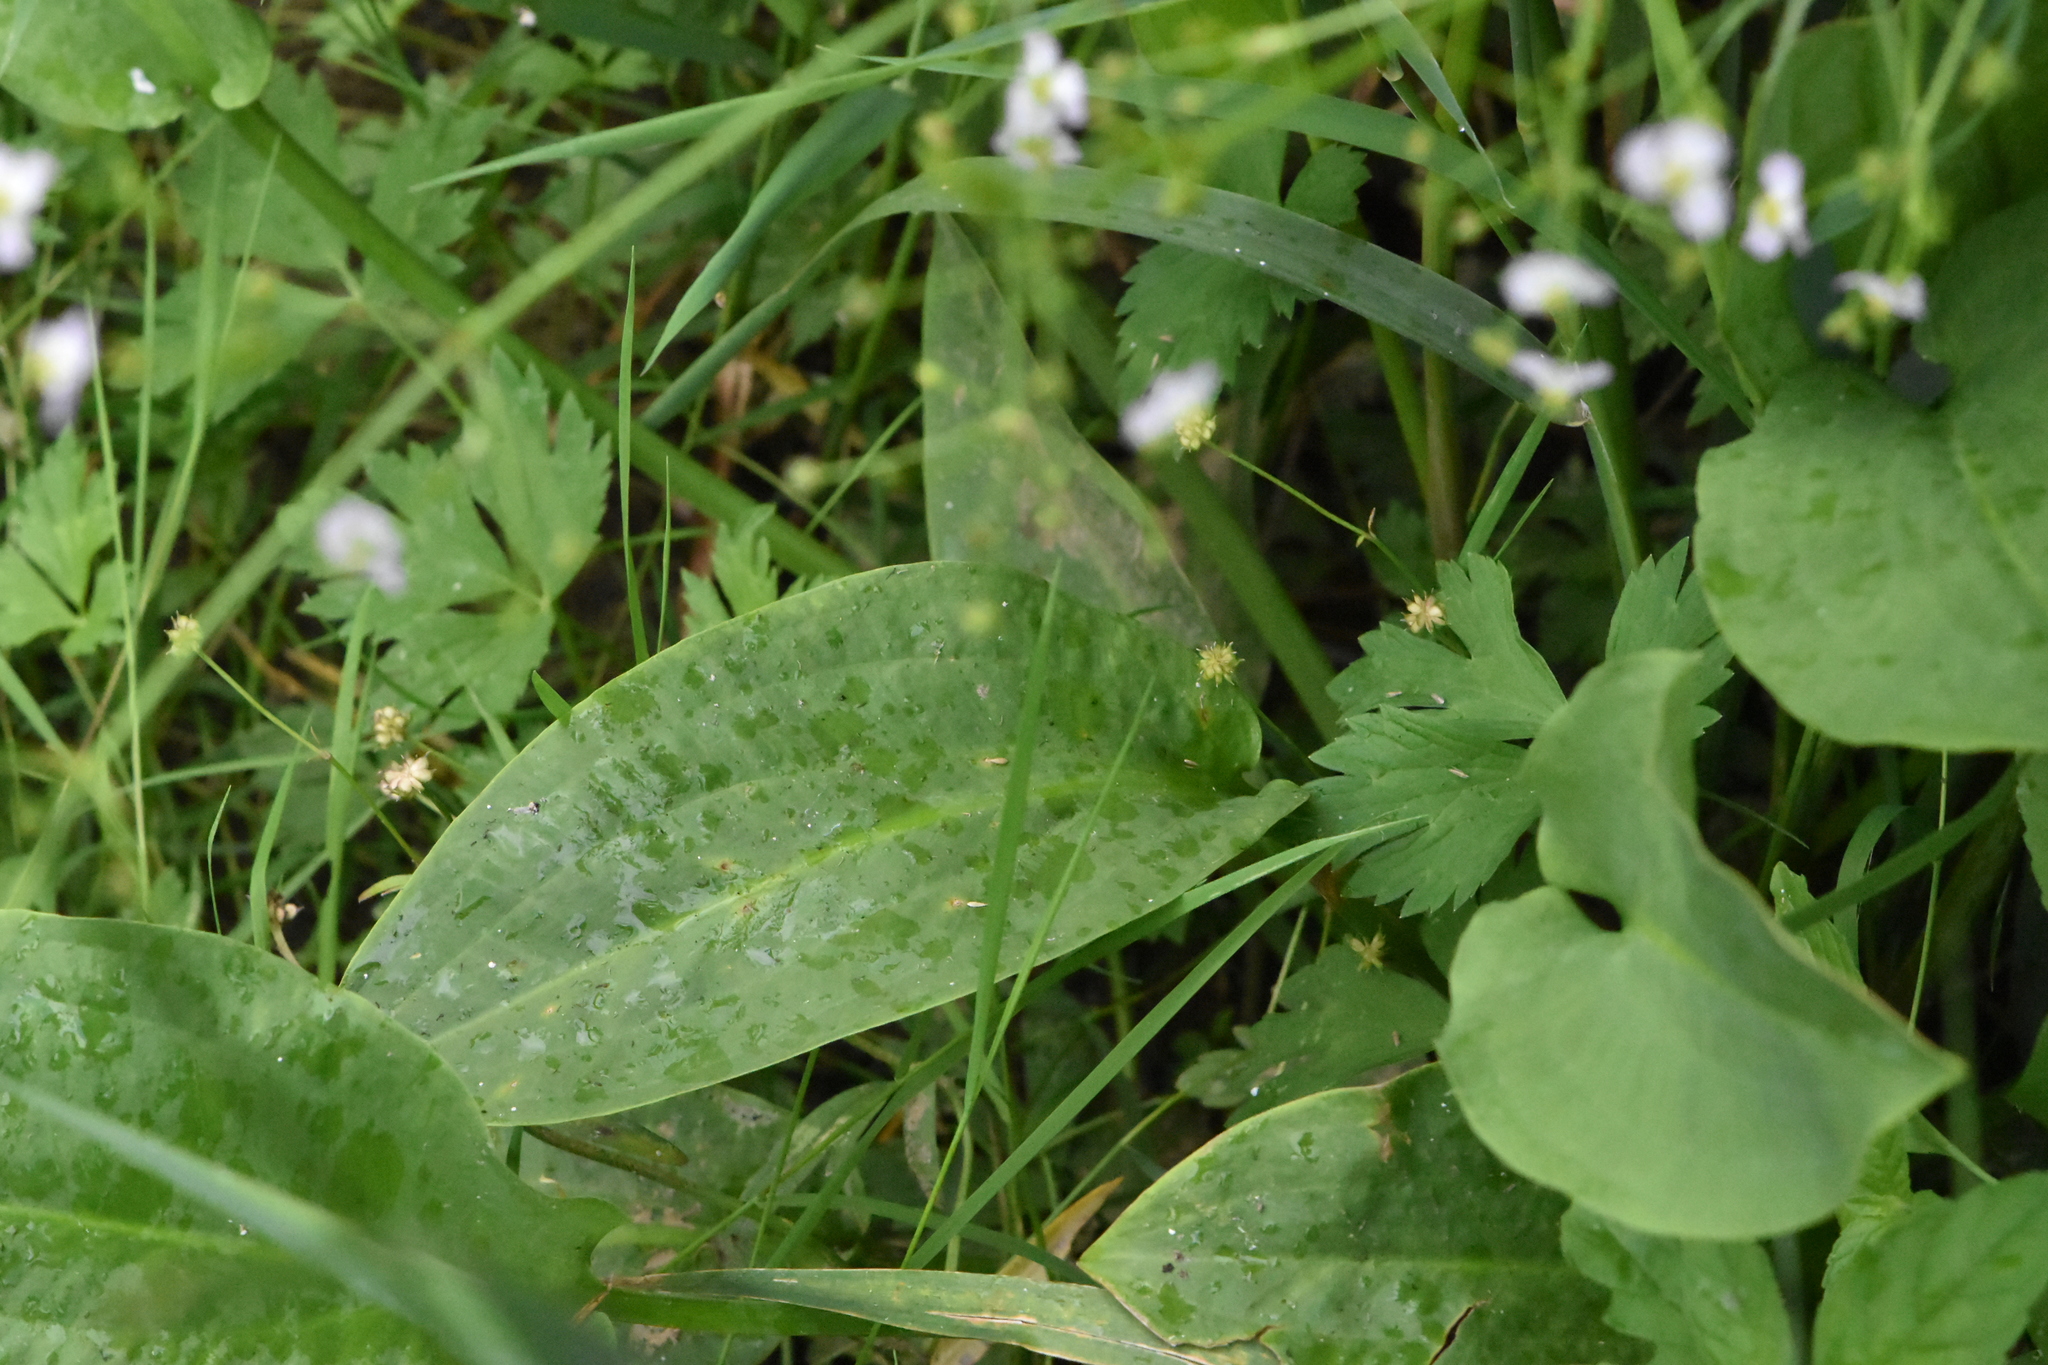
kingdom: Plantae
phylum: Tracheophyta
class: Liliopsida
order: Alismatales
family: Alismataceae
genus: Alisma
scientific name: Alisma plantago-aquatica
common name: Water-plantain
